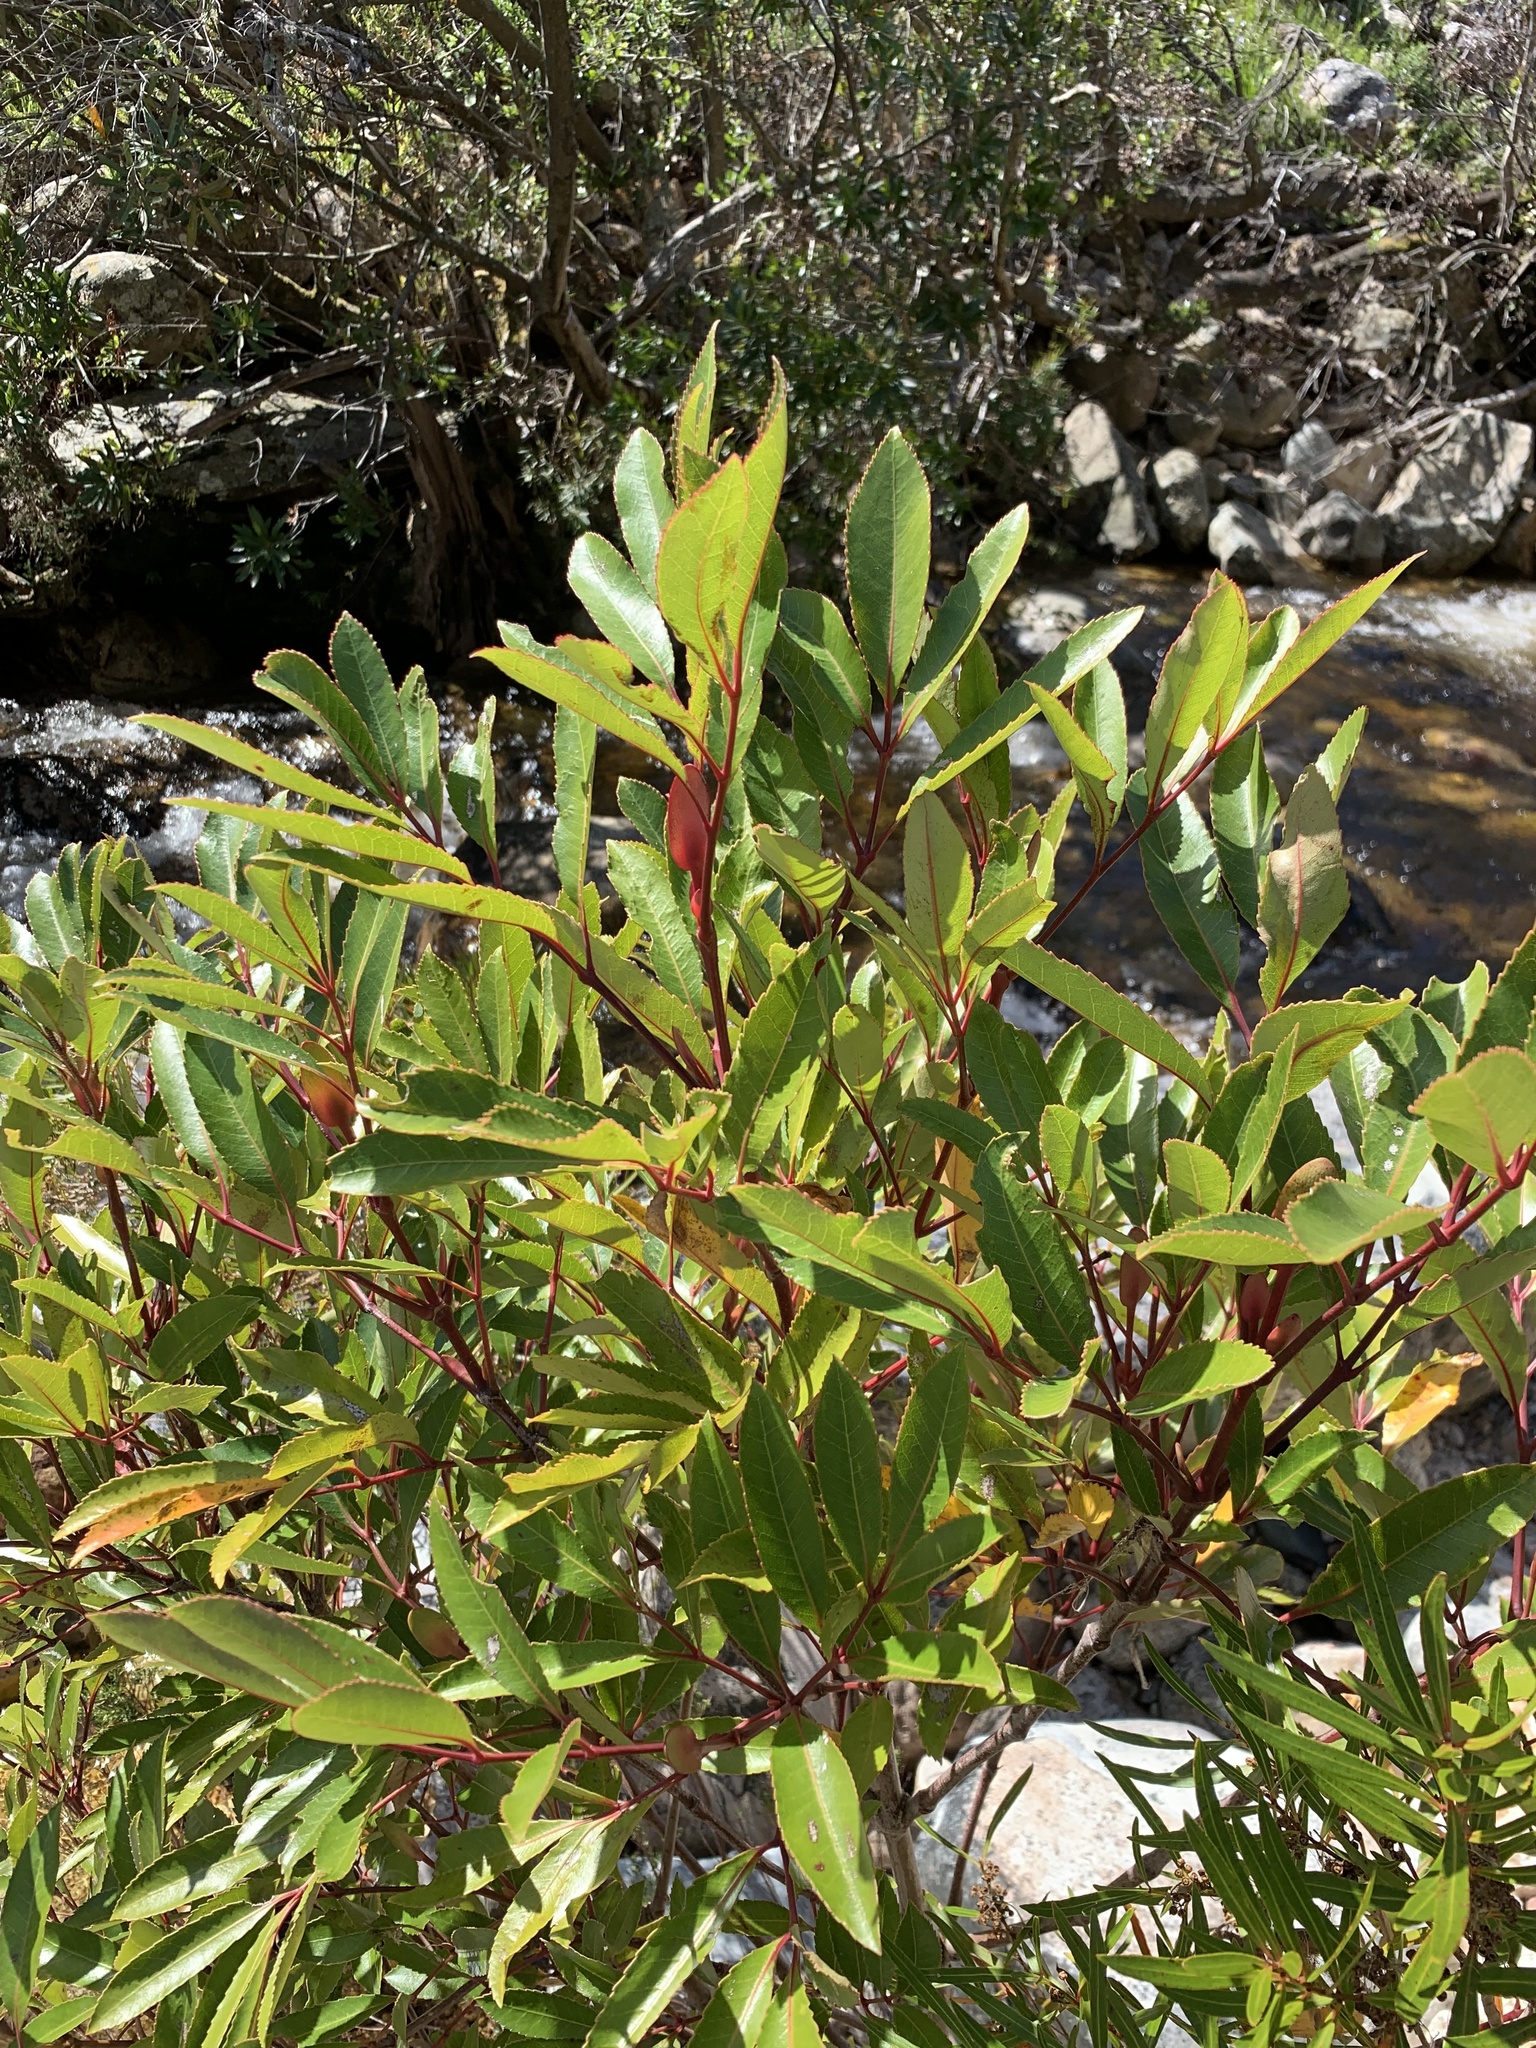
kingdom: Plantae
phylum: Tracheophyta
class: Magnoliopsida
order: Oxalidales
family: Cunoniaceae
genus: Cunonia
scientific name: Cunonia capensis
